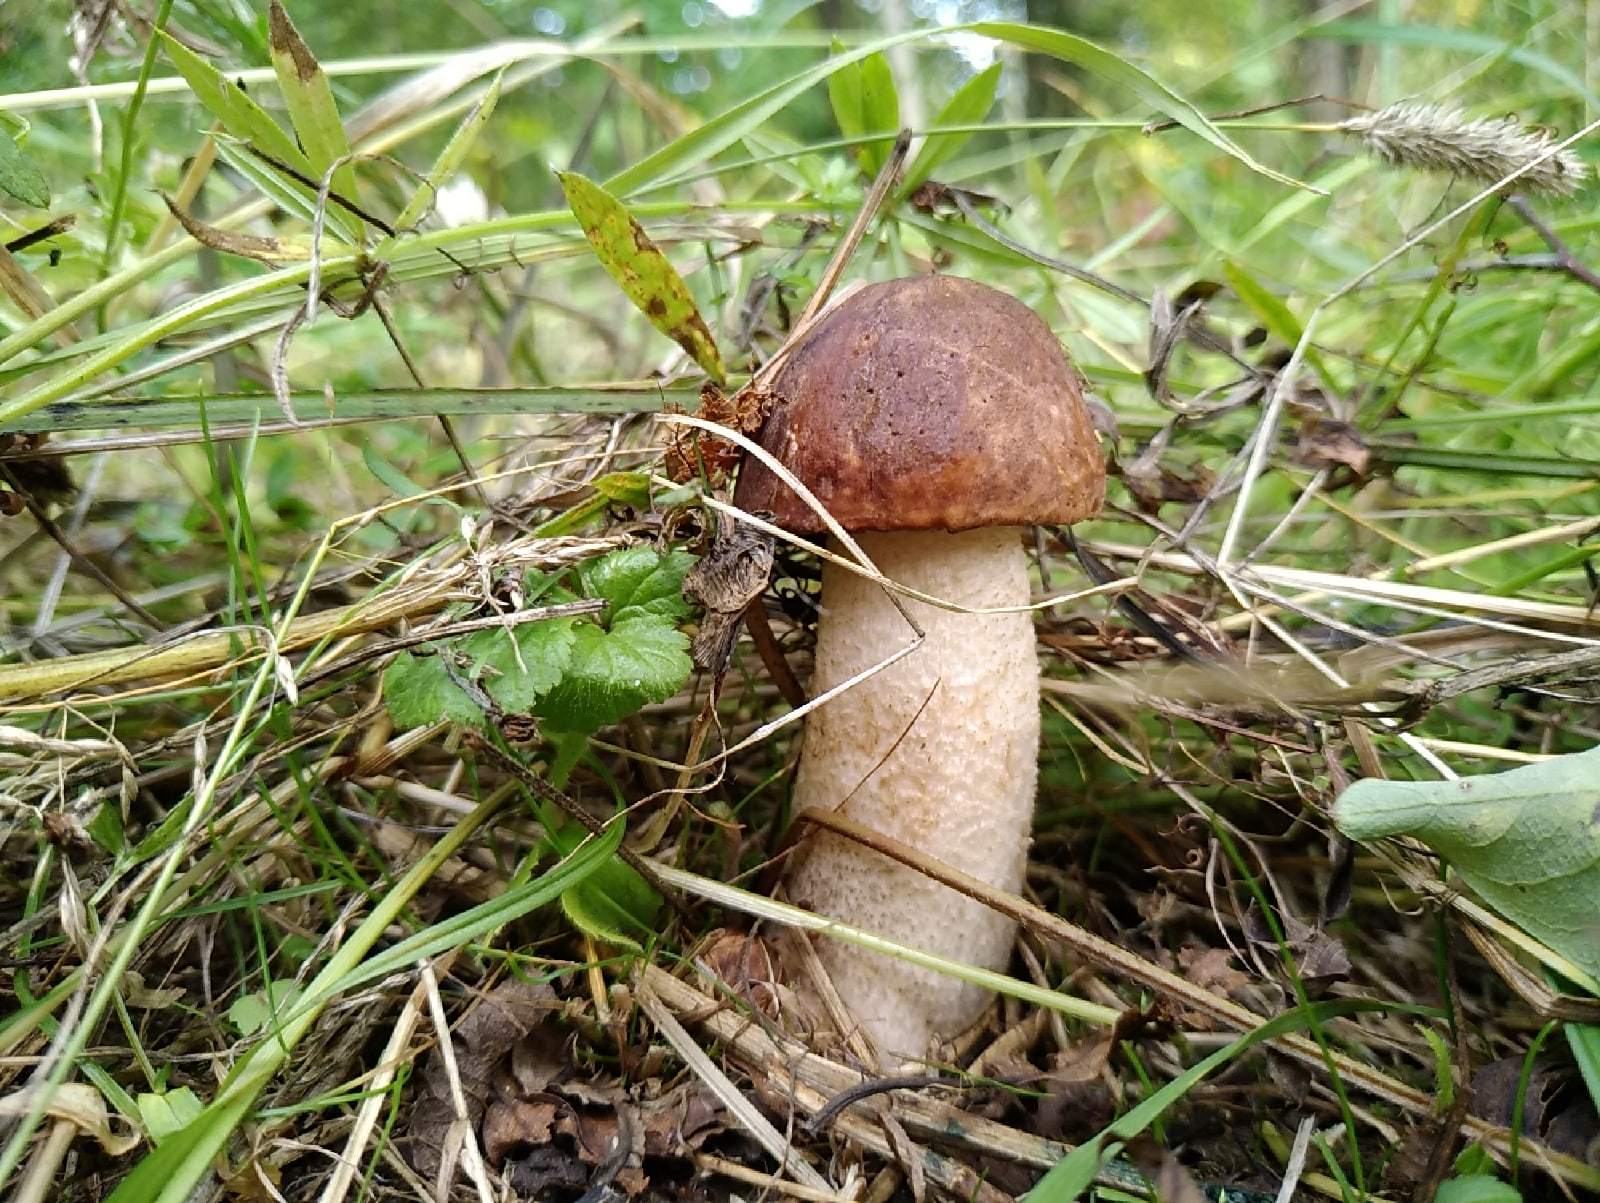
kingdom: Fungi
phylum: Basidiomycota
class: Agaricomycetes
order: Boletales
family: Boletaceae
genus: Leccinum
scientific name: Leccinum albostipitatum
